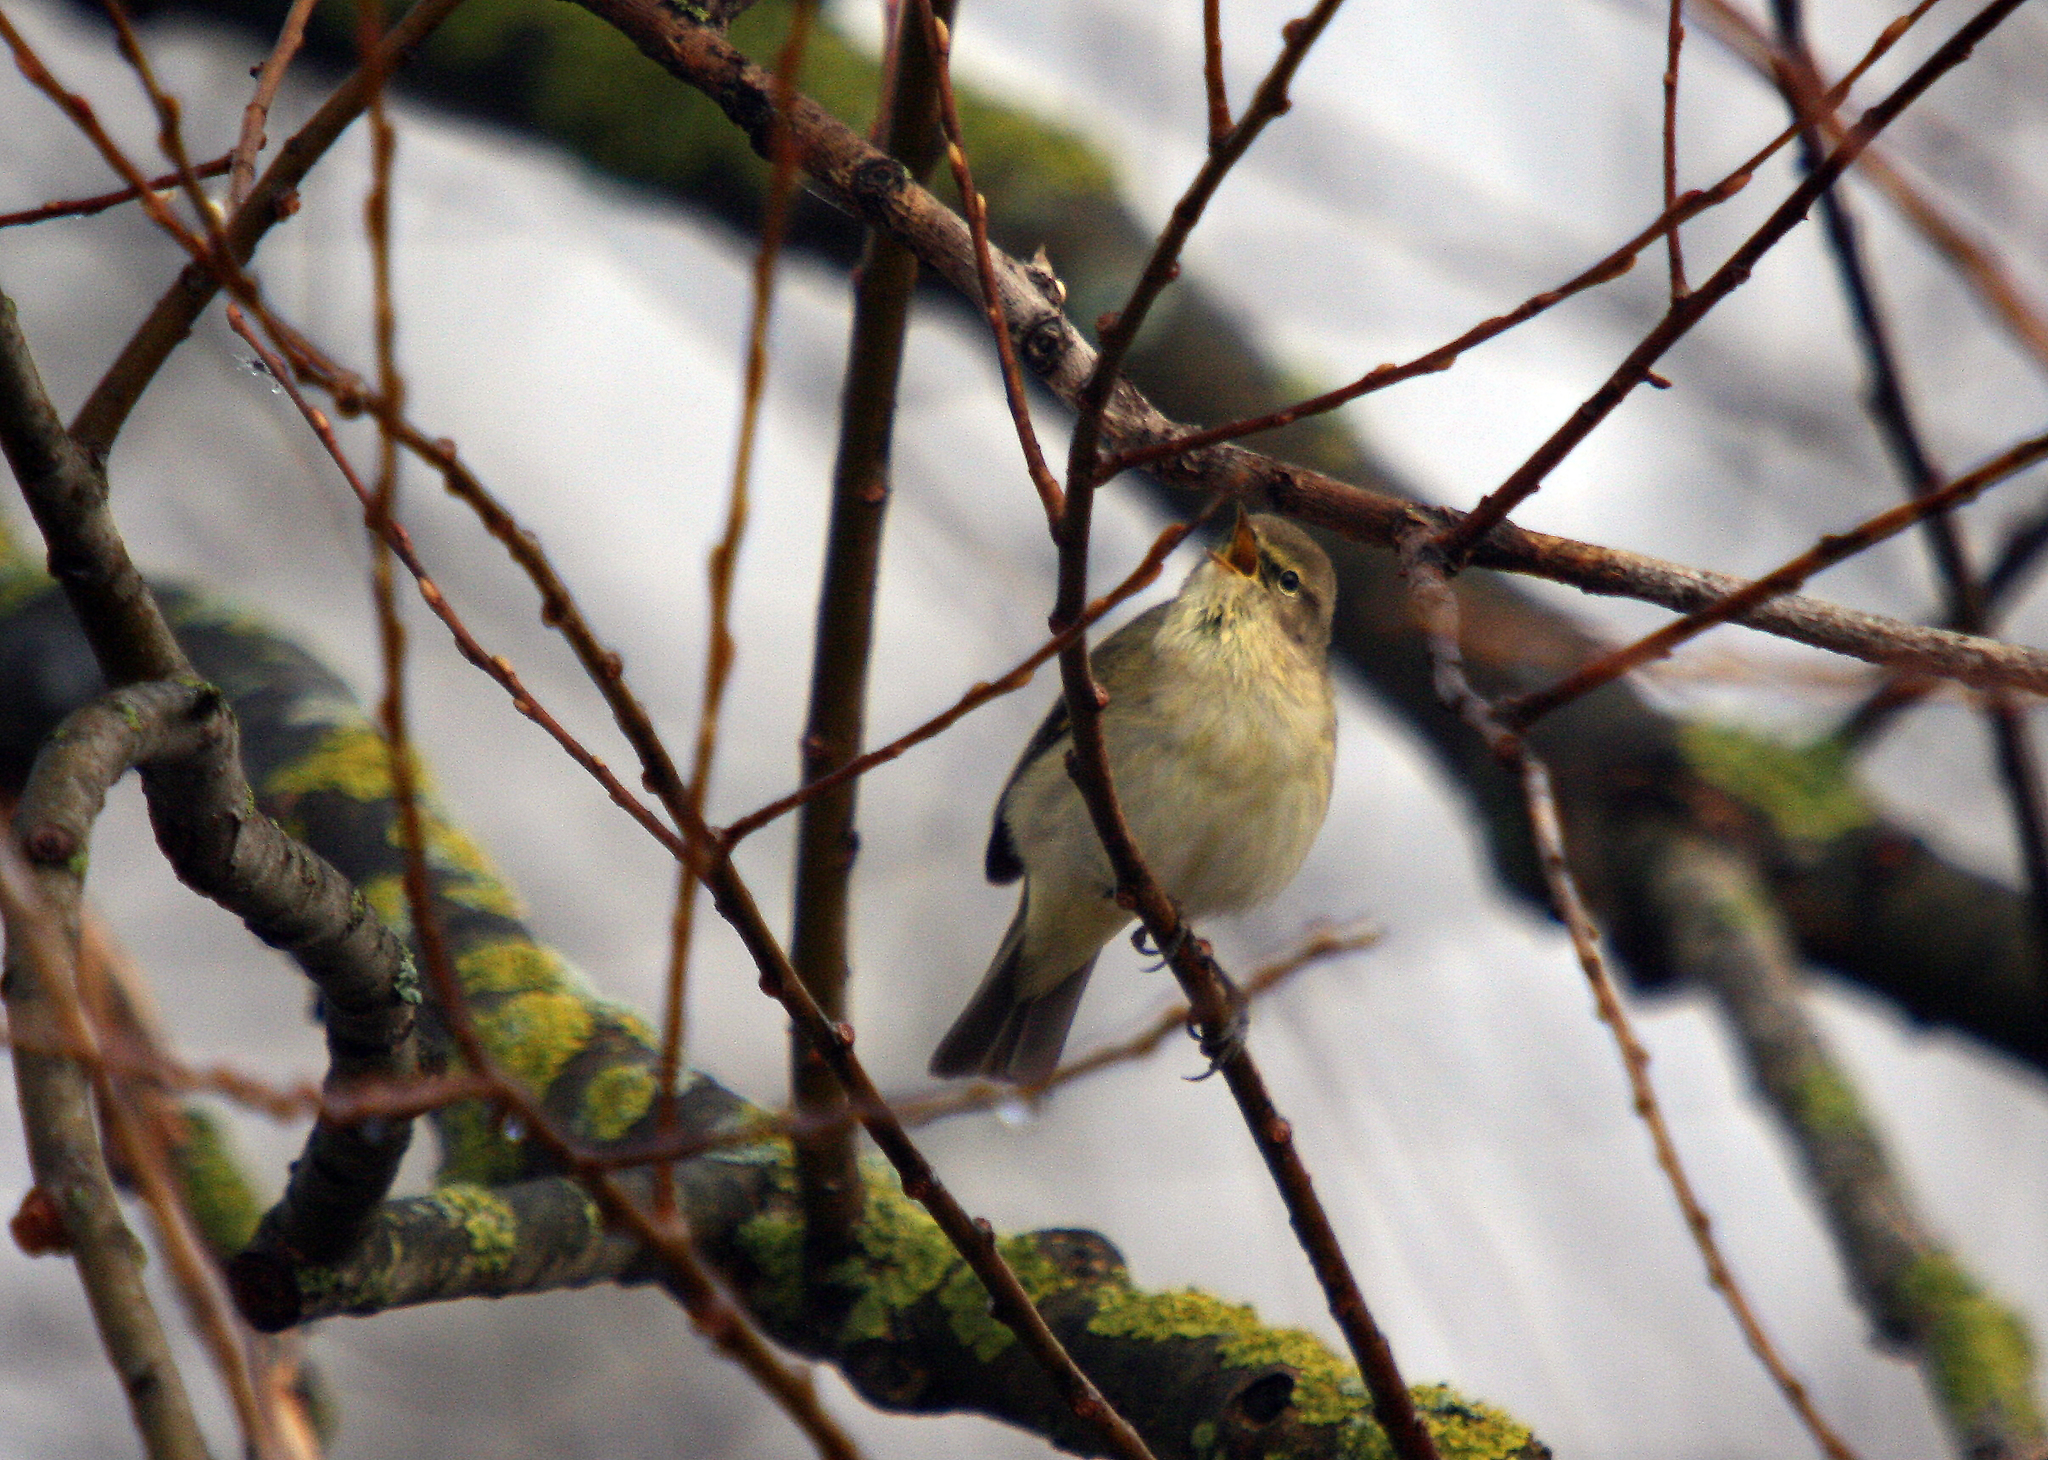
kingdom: Animalia
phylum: Chordata
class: Aves
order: Passeriformes
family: Phylloscopidae
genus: Phylloscopus
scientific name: Phylloscopus collybita
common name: Common chiffchaff
